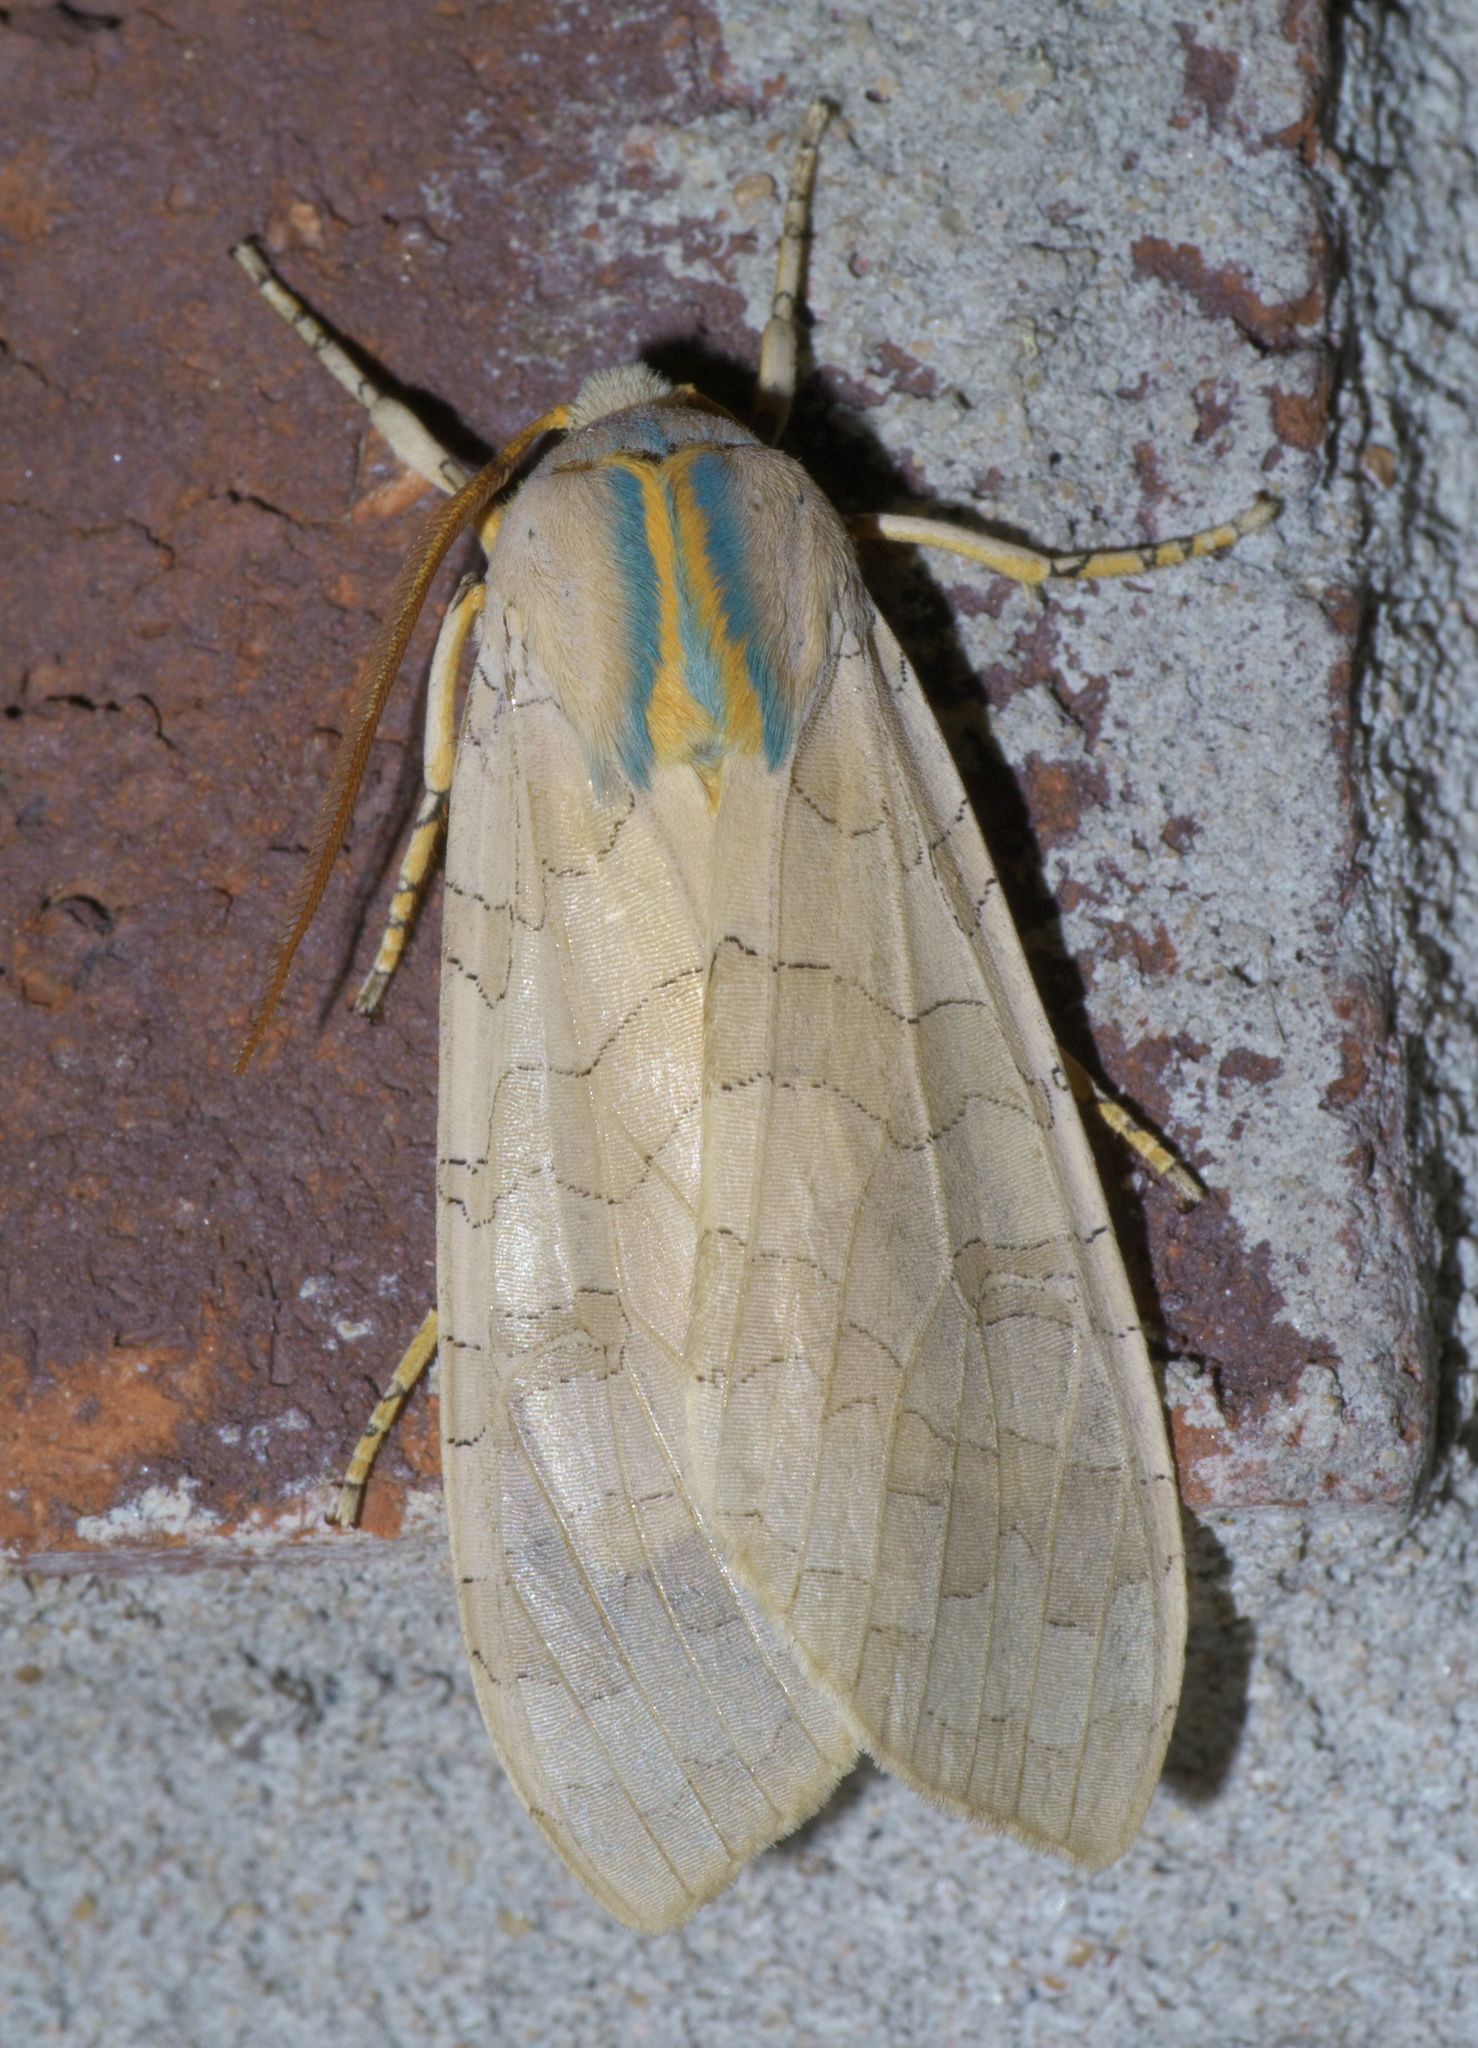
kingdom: Animalia
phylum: Arthropoda
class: Insecta
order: Lepidoptera
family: Erebidae
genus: Halysidota
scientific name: Halysidota
